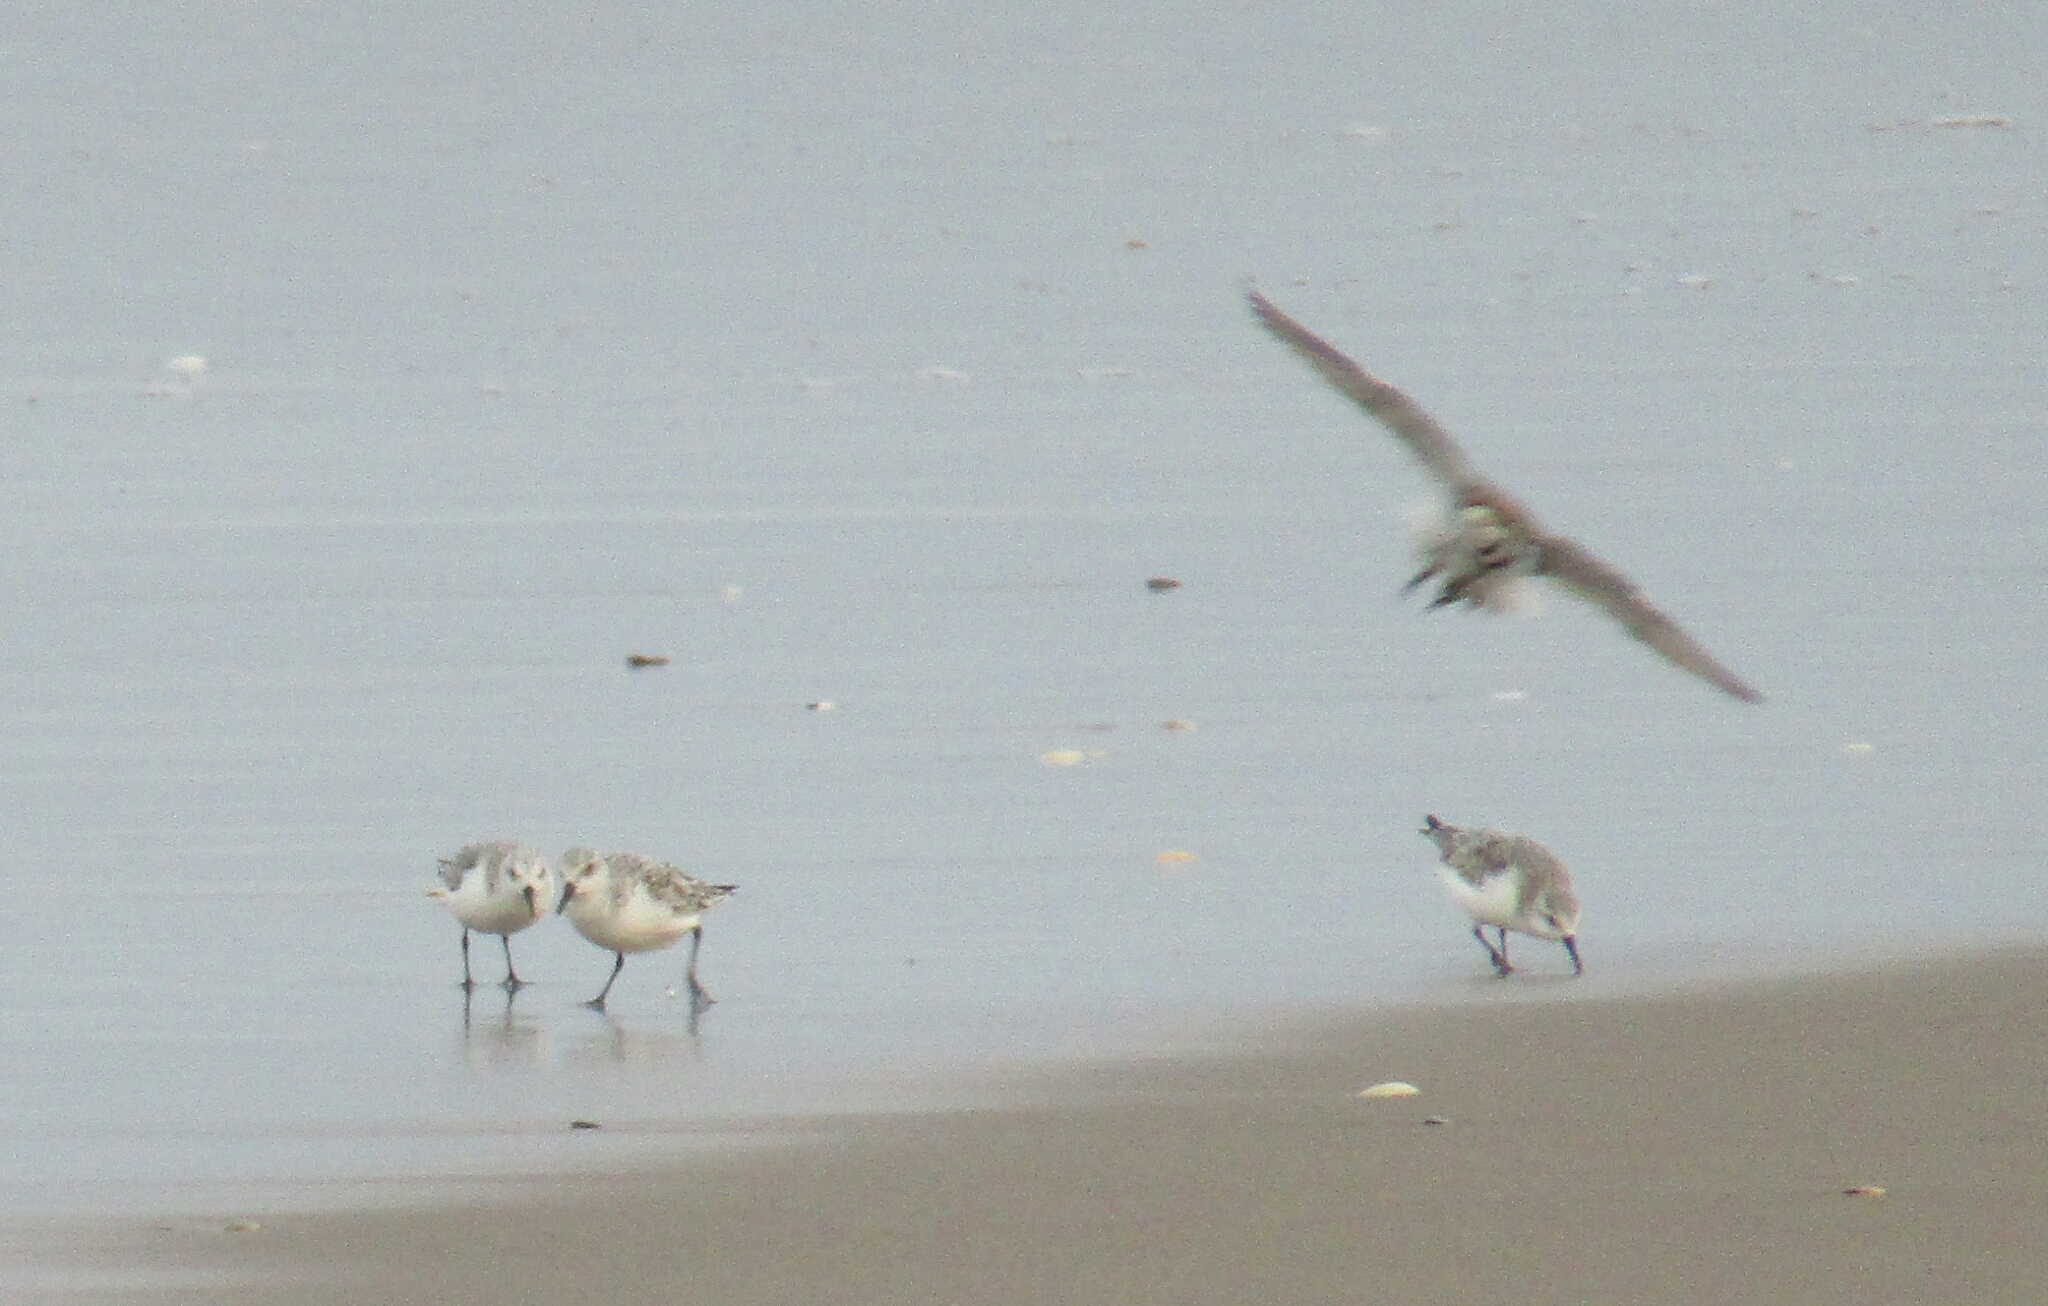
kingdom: Animalia
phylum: Chordata
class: Aves
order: Charadriiformes
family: Scolopacidae
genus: Calidris
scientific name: Calidris alba
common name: Sanderling
